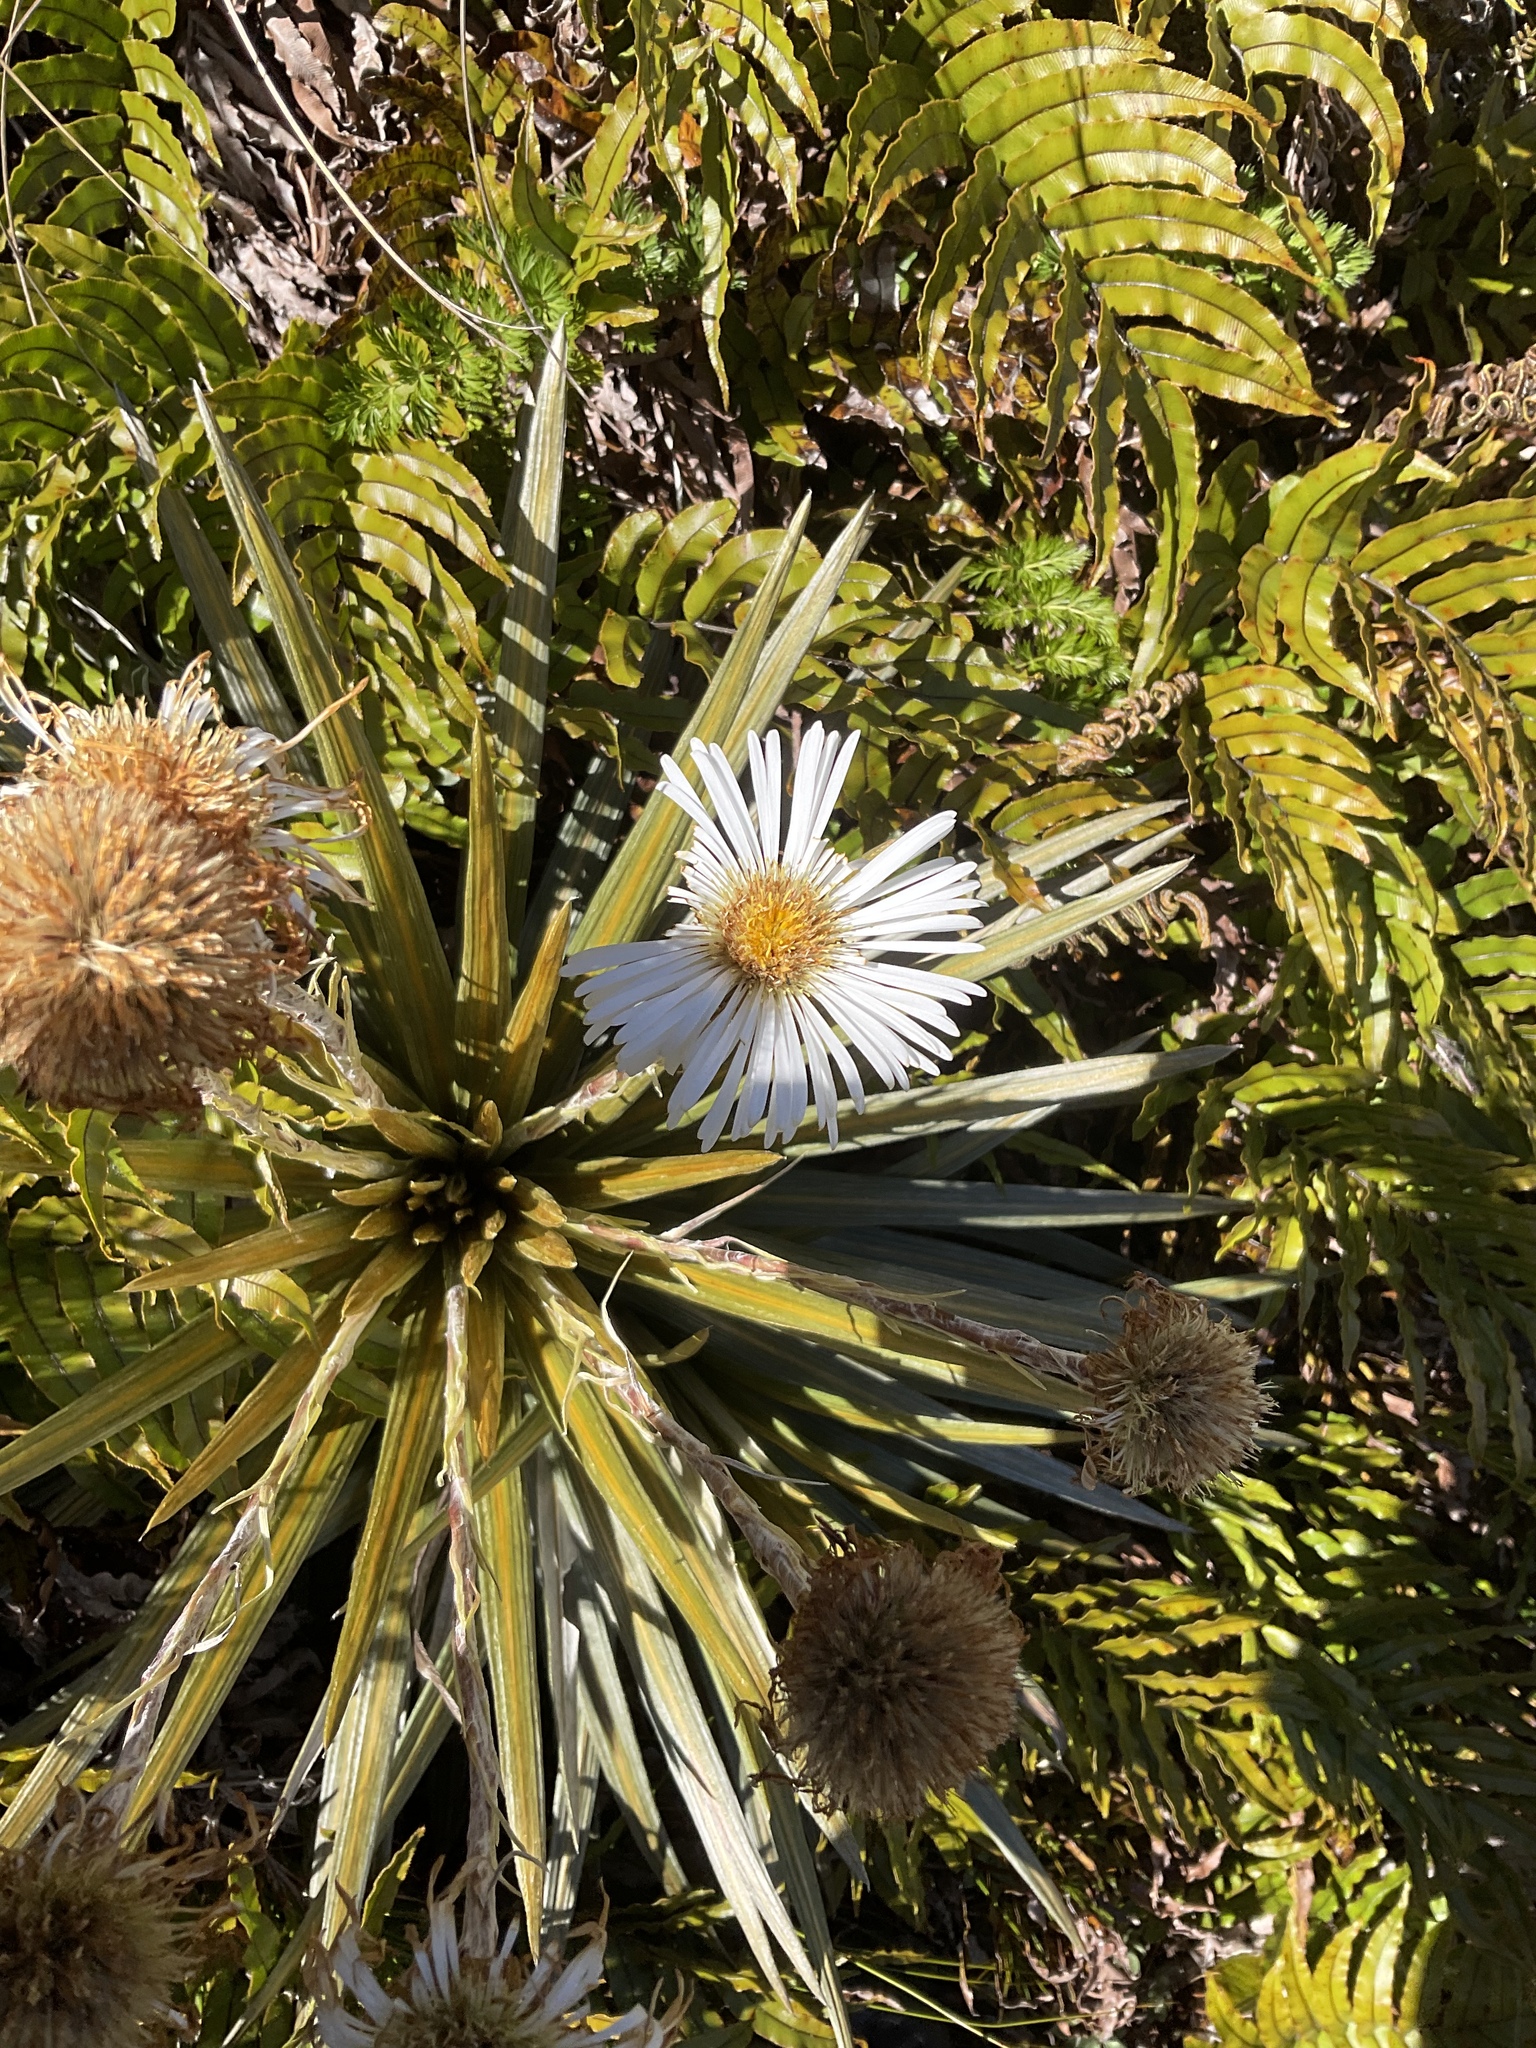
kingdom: Plantae
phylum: Tracheophyta
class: Magnoliopsida
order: Asterales
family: Asteraceae
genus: Celmisia
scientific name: Celmisia armstrongii
